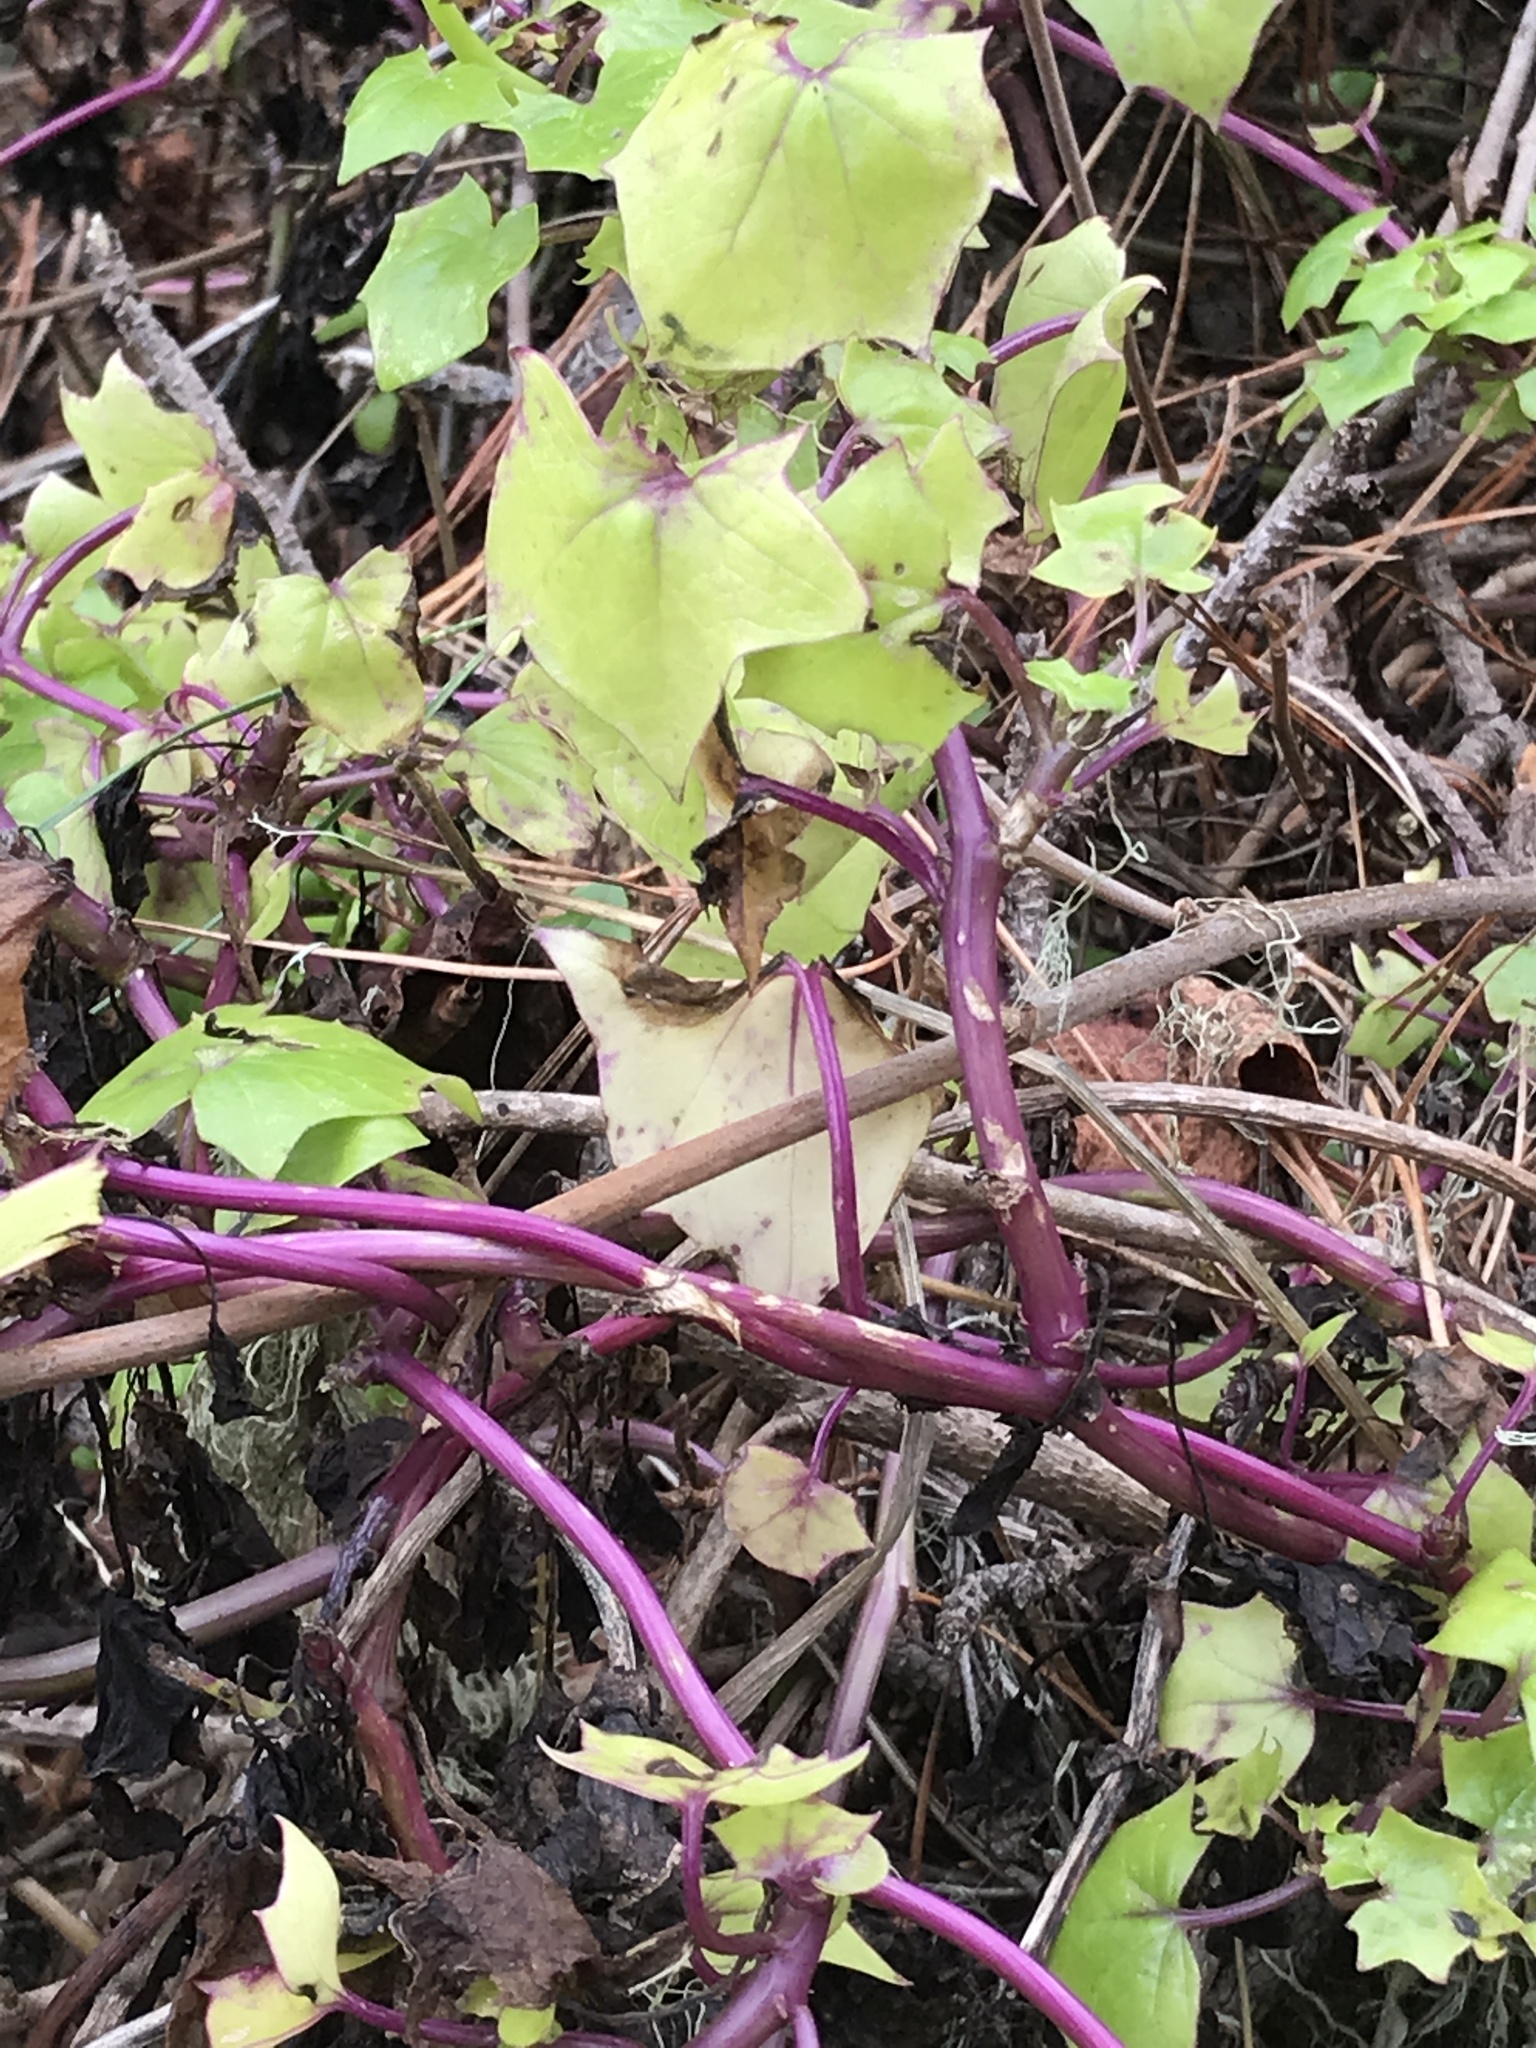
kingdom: Plantae
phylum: Tracheophyta
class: Magnoliopsida
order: Asterales
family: Asteraceae
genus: Delairea
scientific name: Delairea odorata
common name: Cape-ivy
